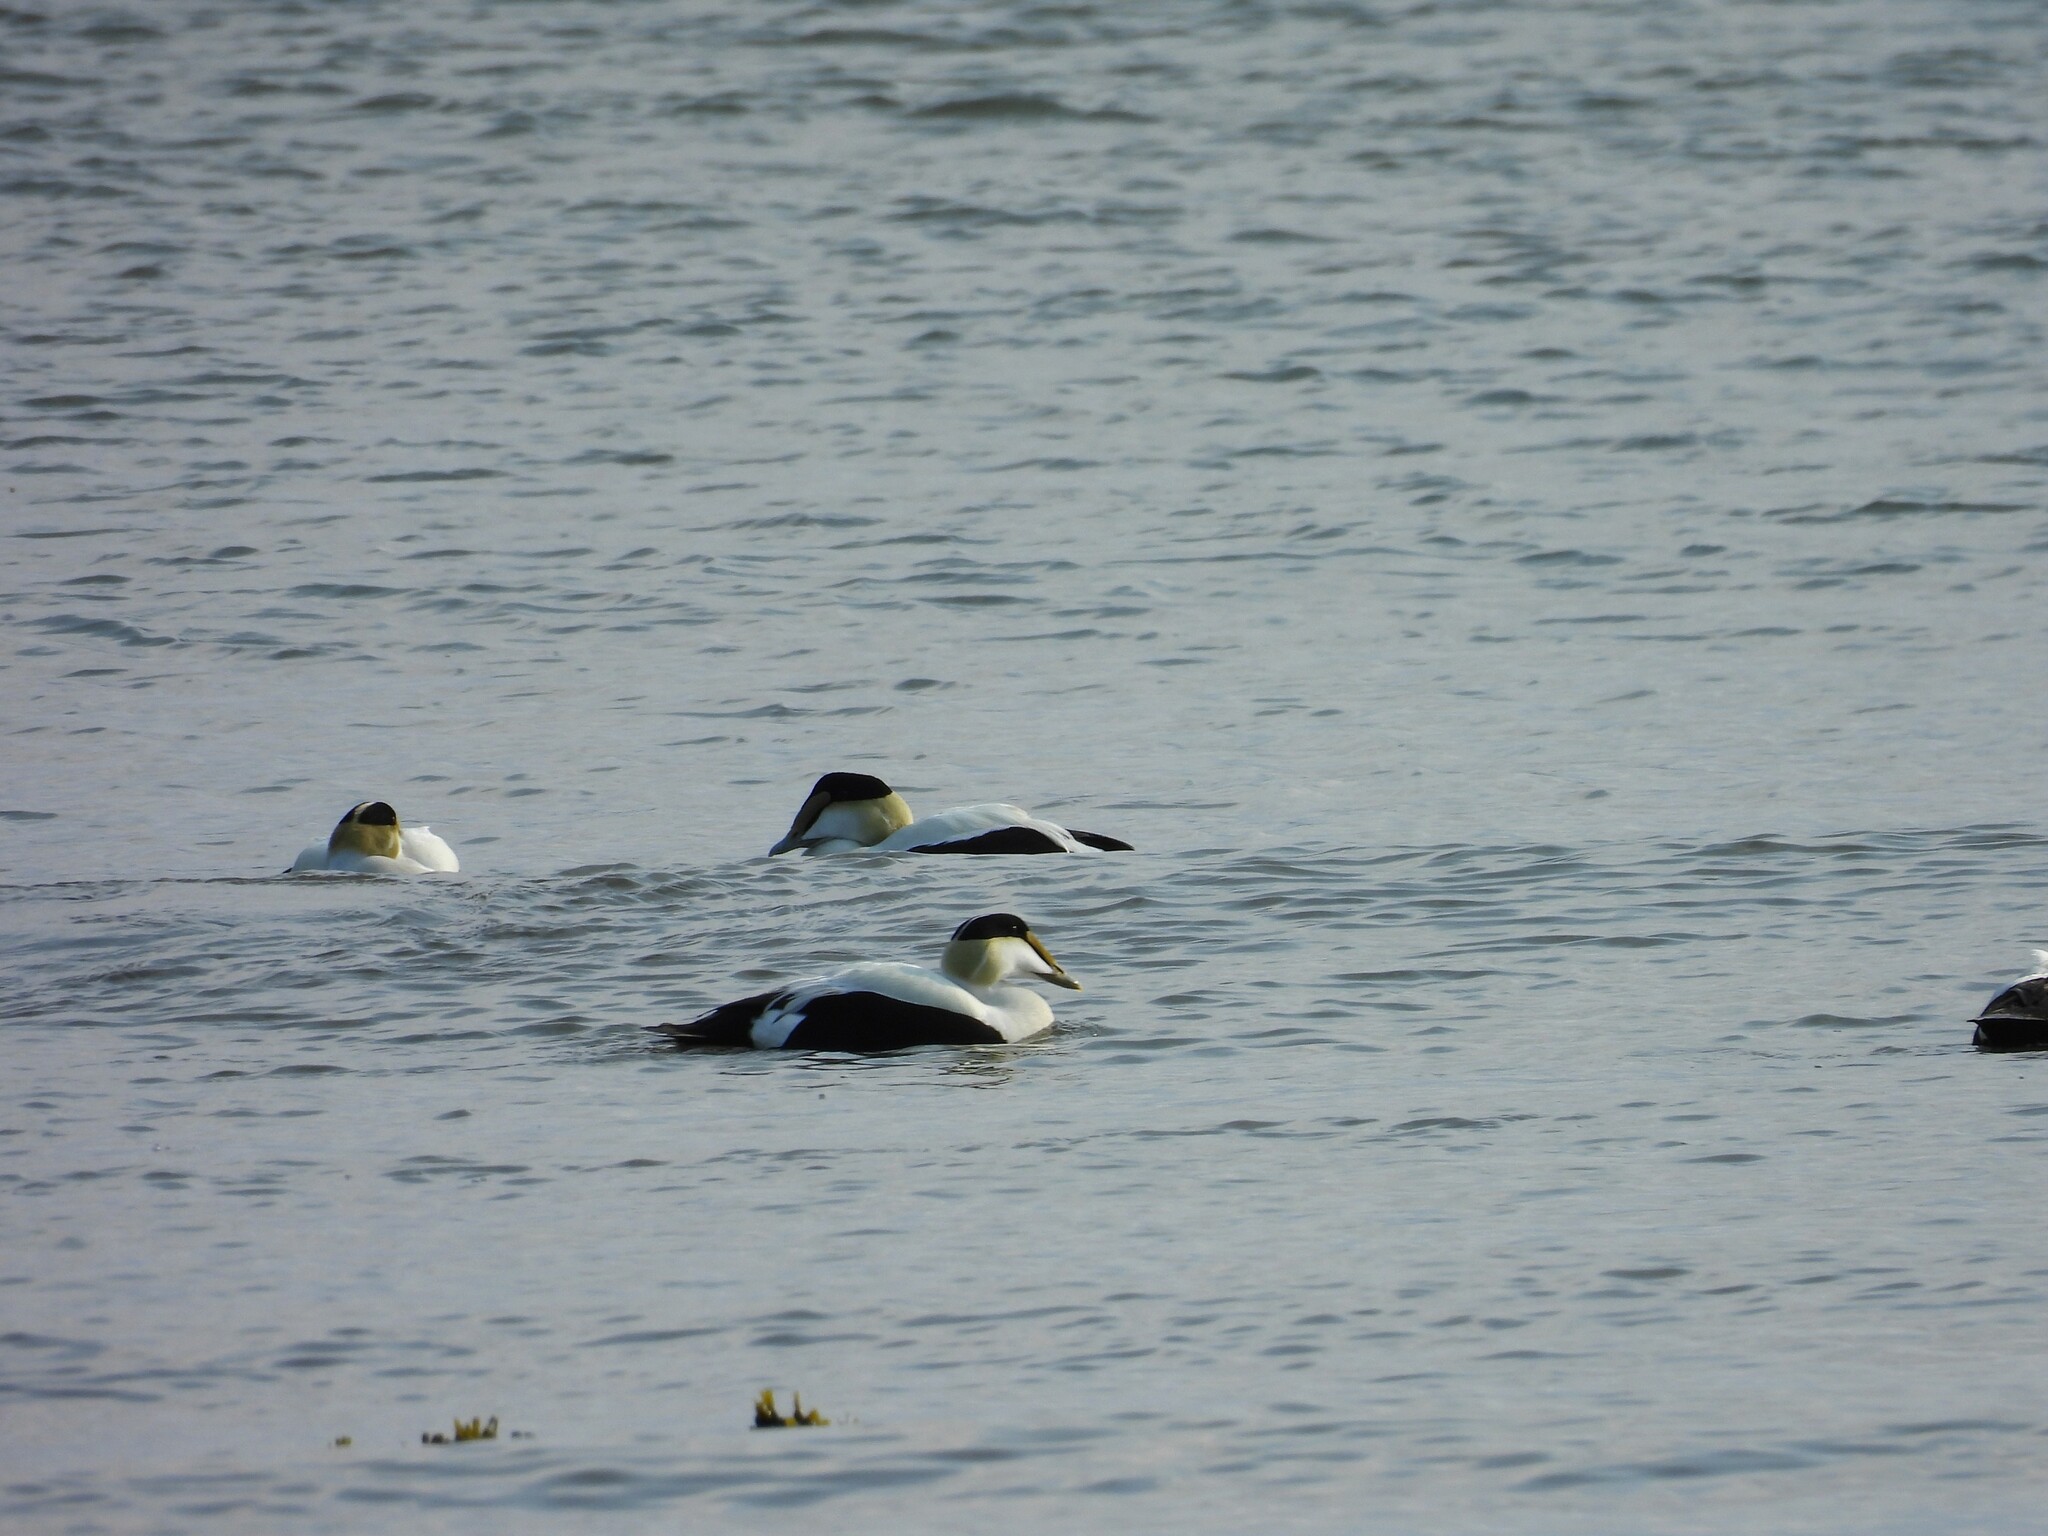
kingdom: Animalia
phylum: Chordata
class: Aves
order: Anseriformes
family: Anatidae
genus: Somateria
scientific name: Somateria mollissima
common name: Common eider
